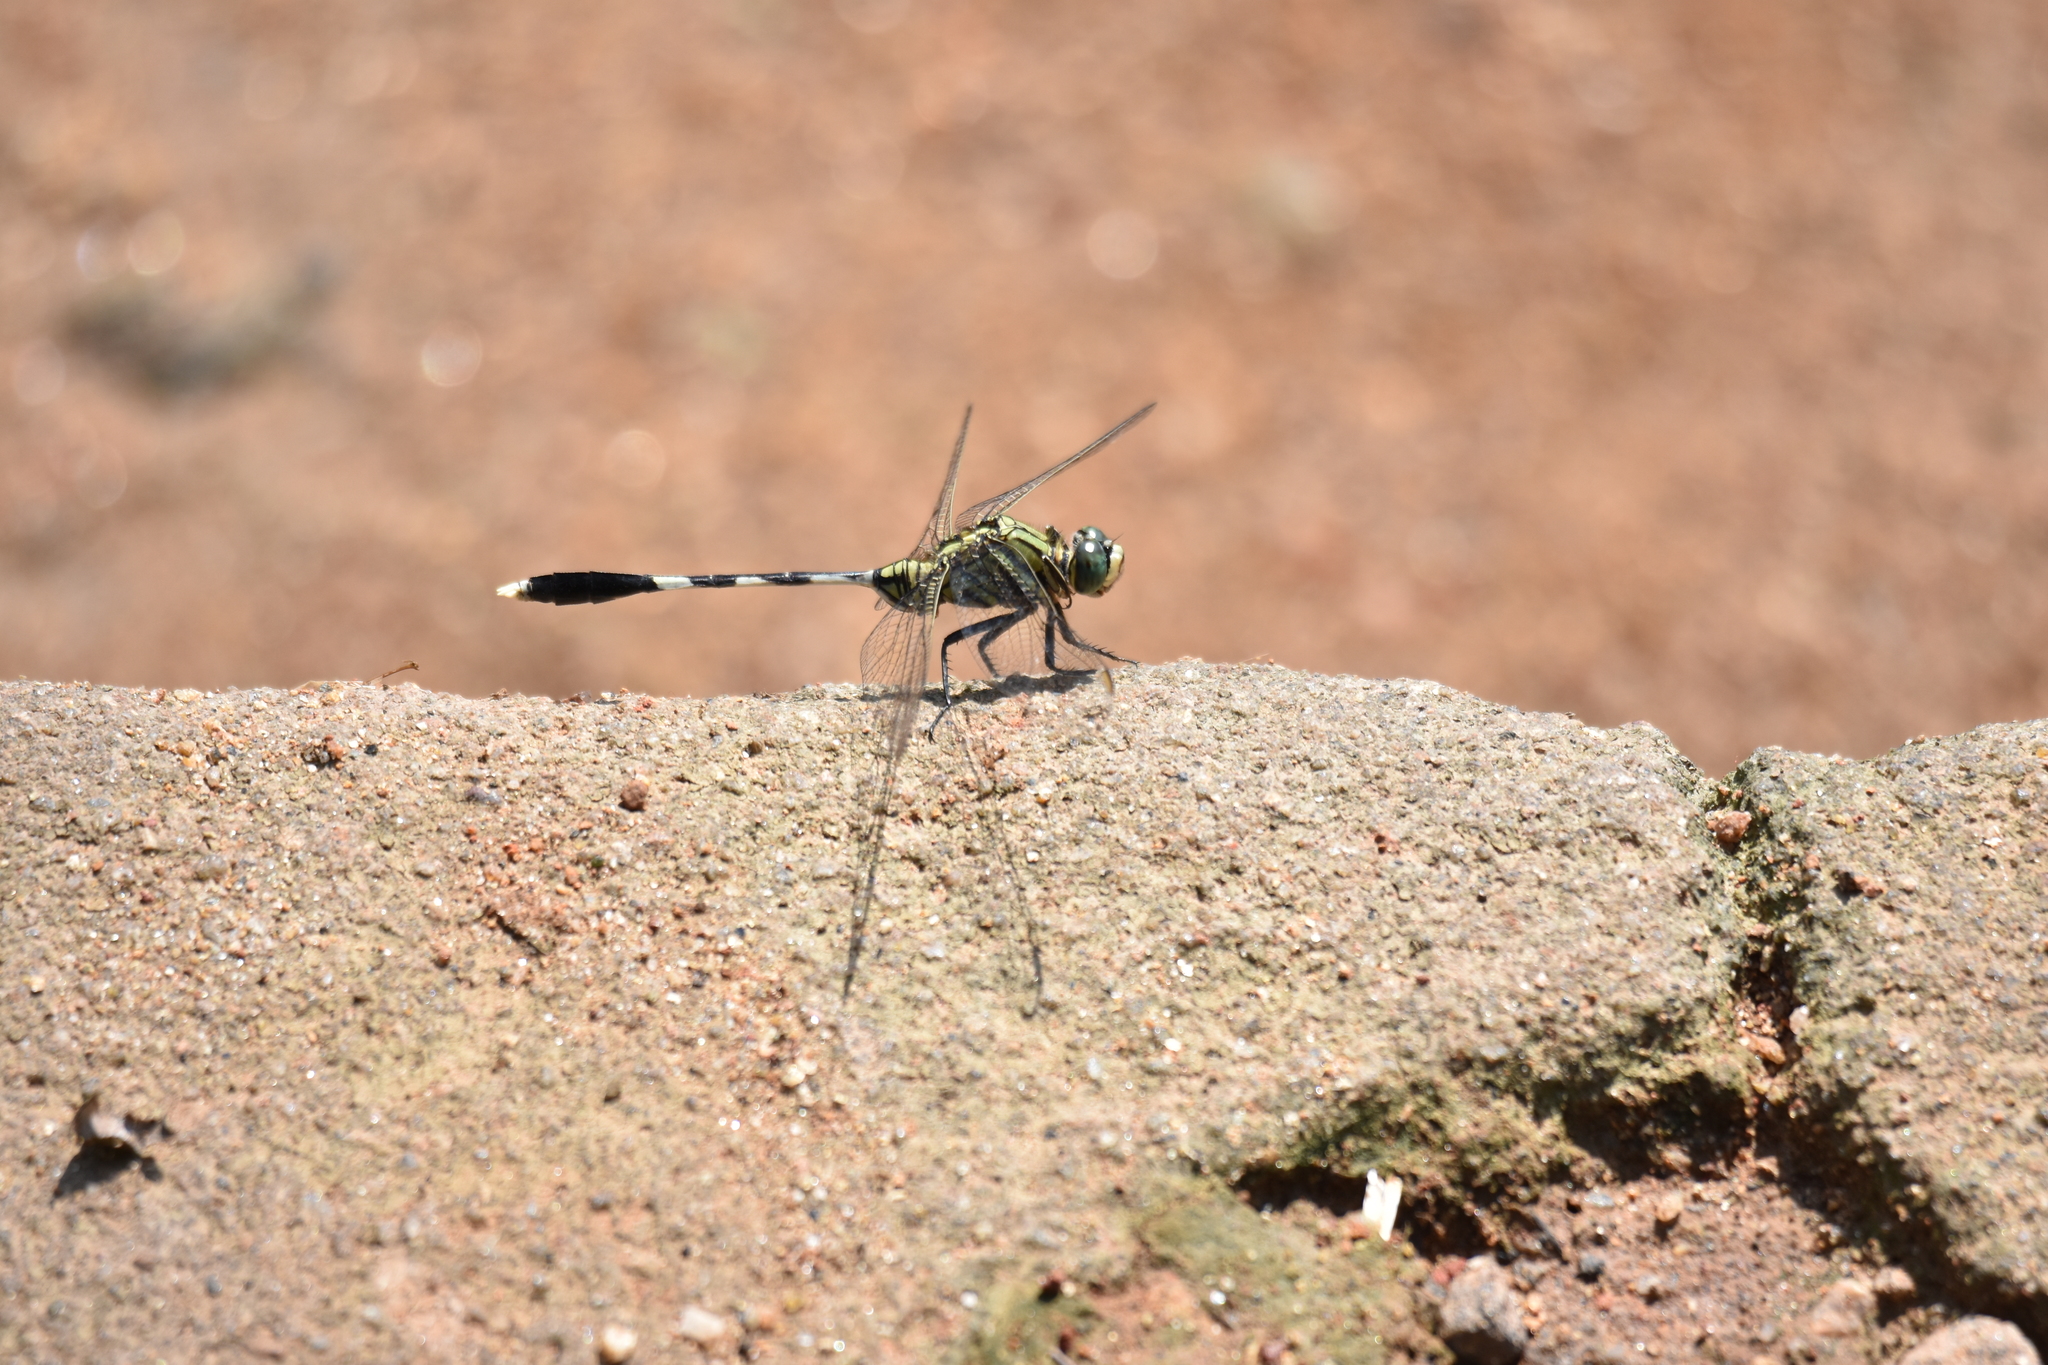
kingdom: Animalia
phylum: Arthropoda
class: Insecta
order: Odonata
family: Libellulidae
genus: Orthetrum
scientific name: Orthetrum sabina
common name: Slender skimmer
